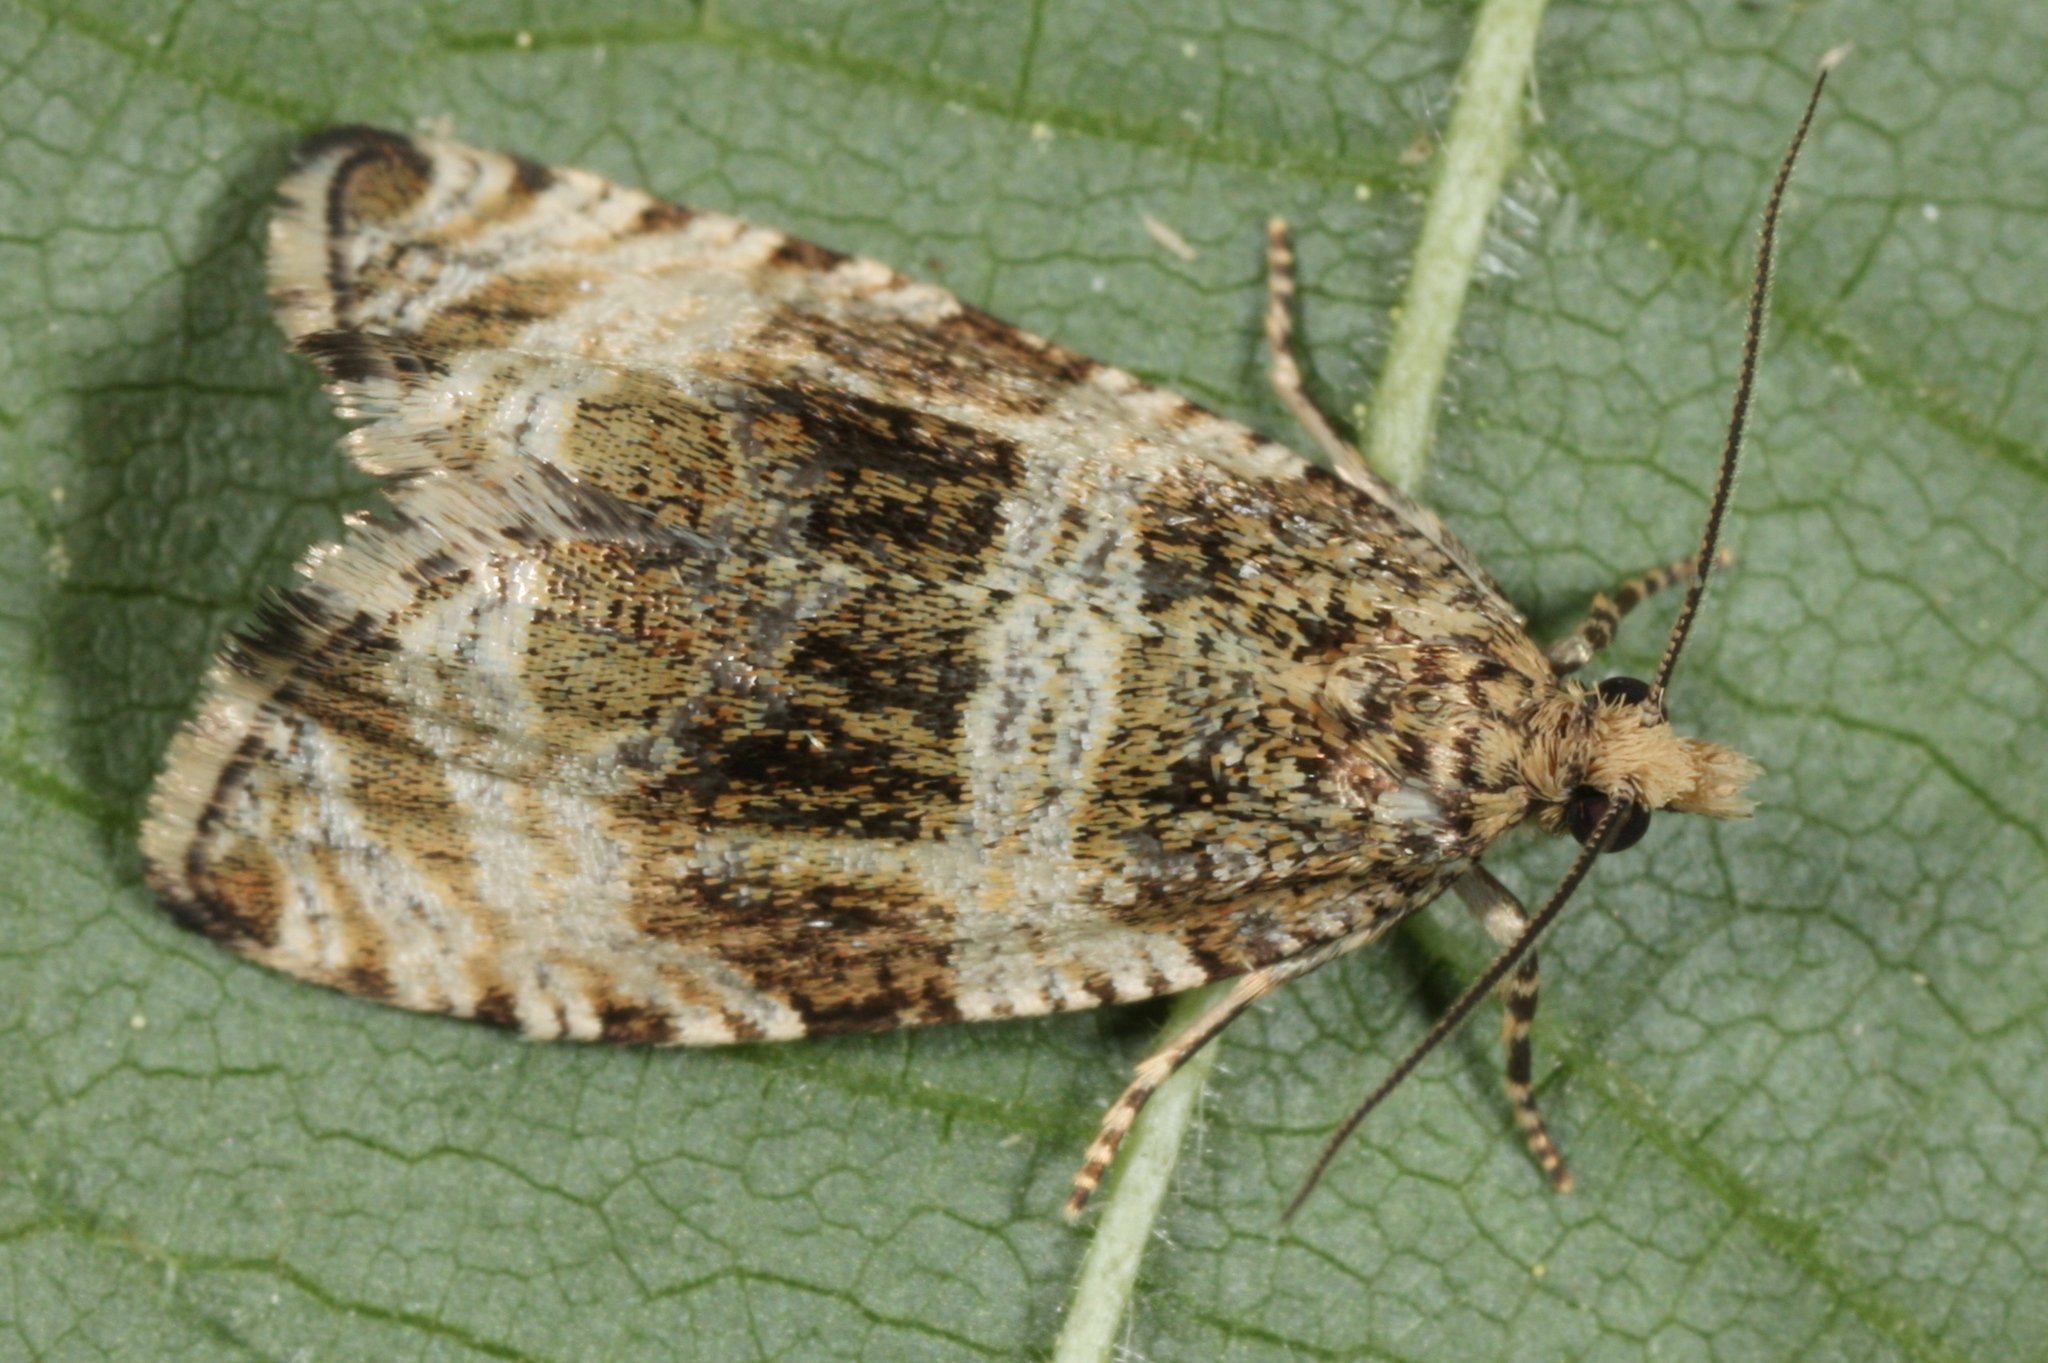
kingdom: Animalia
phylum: Arthropoda
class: Insecta
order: Lepidoptera
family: Tortricidae
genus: Olethreutes
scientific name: Olethreutes umbrosana
